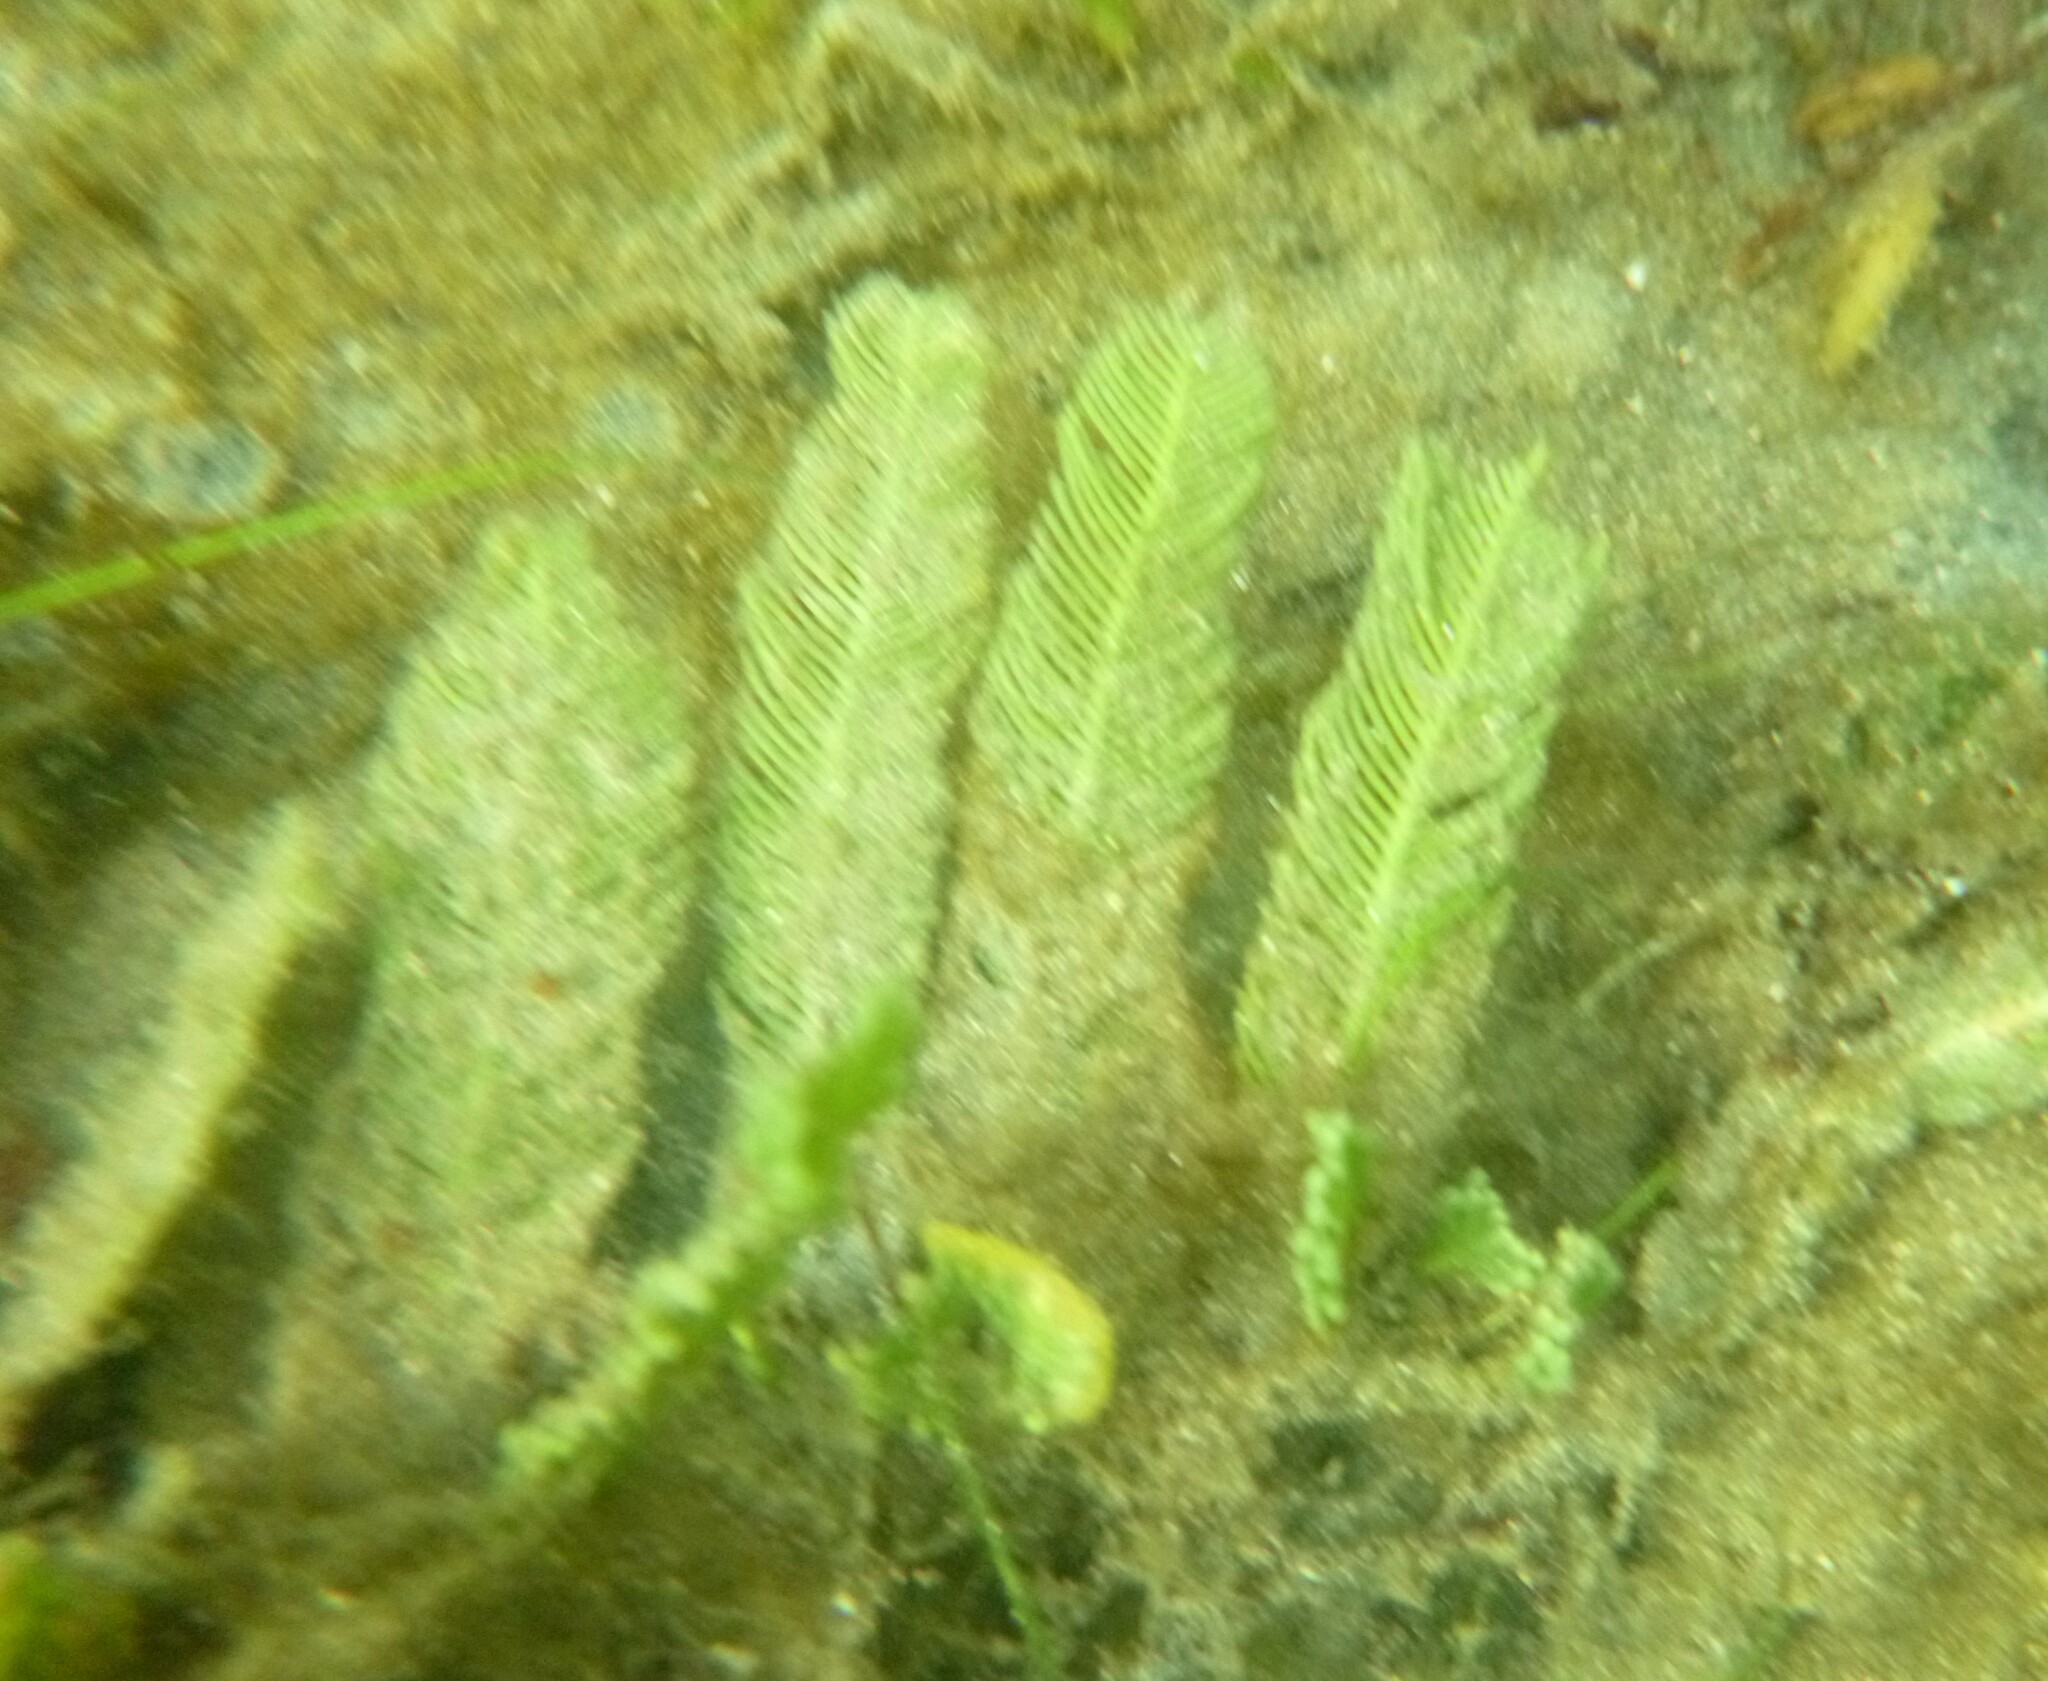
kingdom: Plantae
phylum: Chlorophyta
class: Ulvophyceae
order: Bryopsidales
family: Caulerpaceae
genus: Caulerpa
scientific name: Caulerpa sertularioides
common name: Green feather algae
